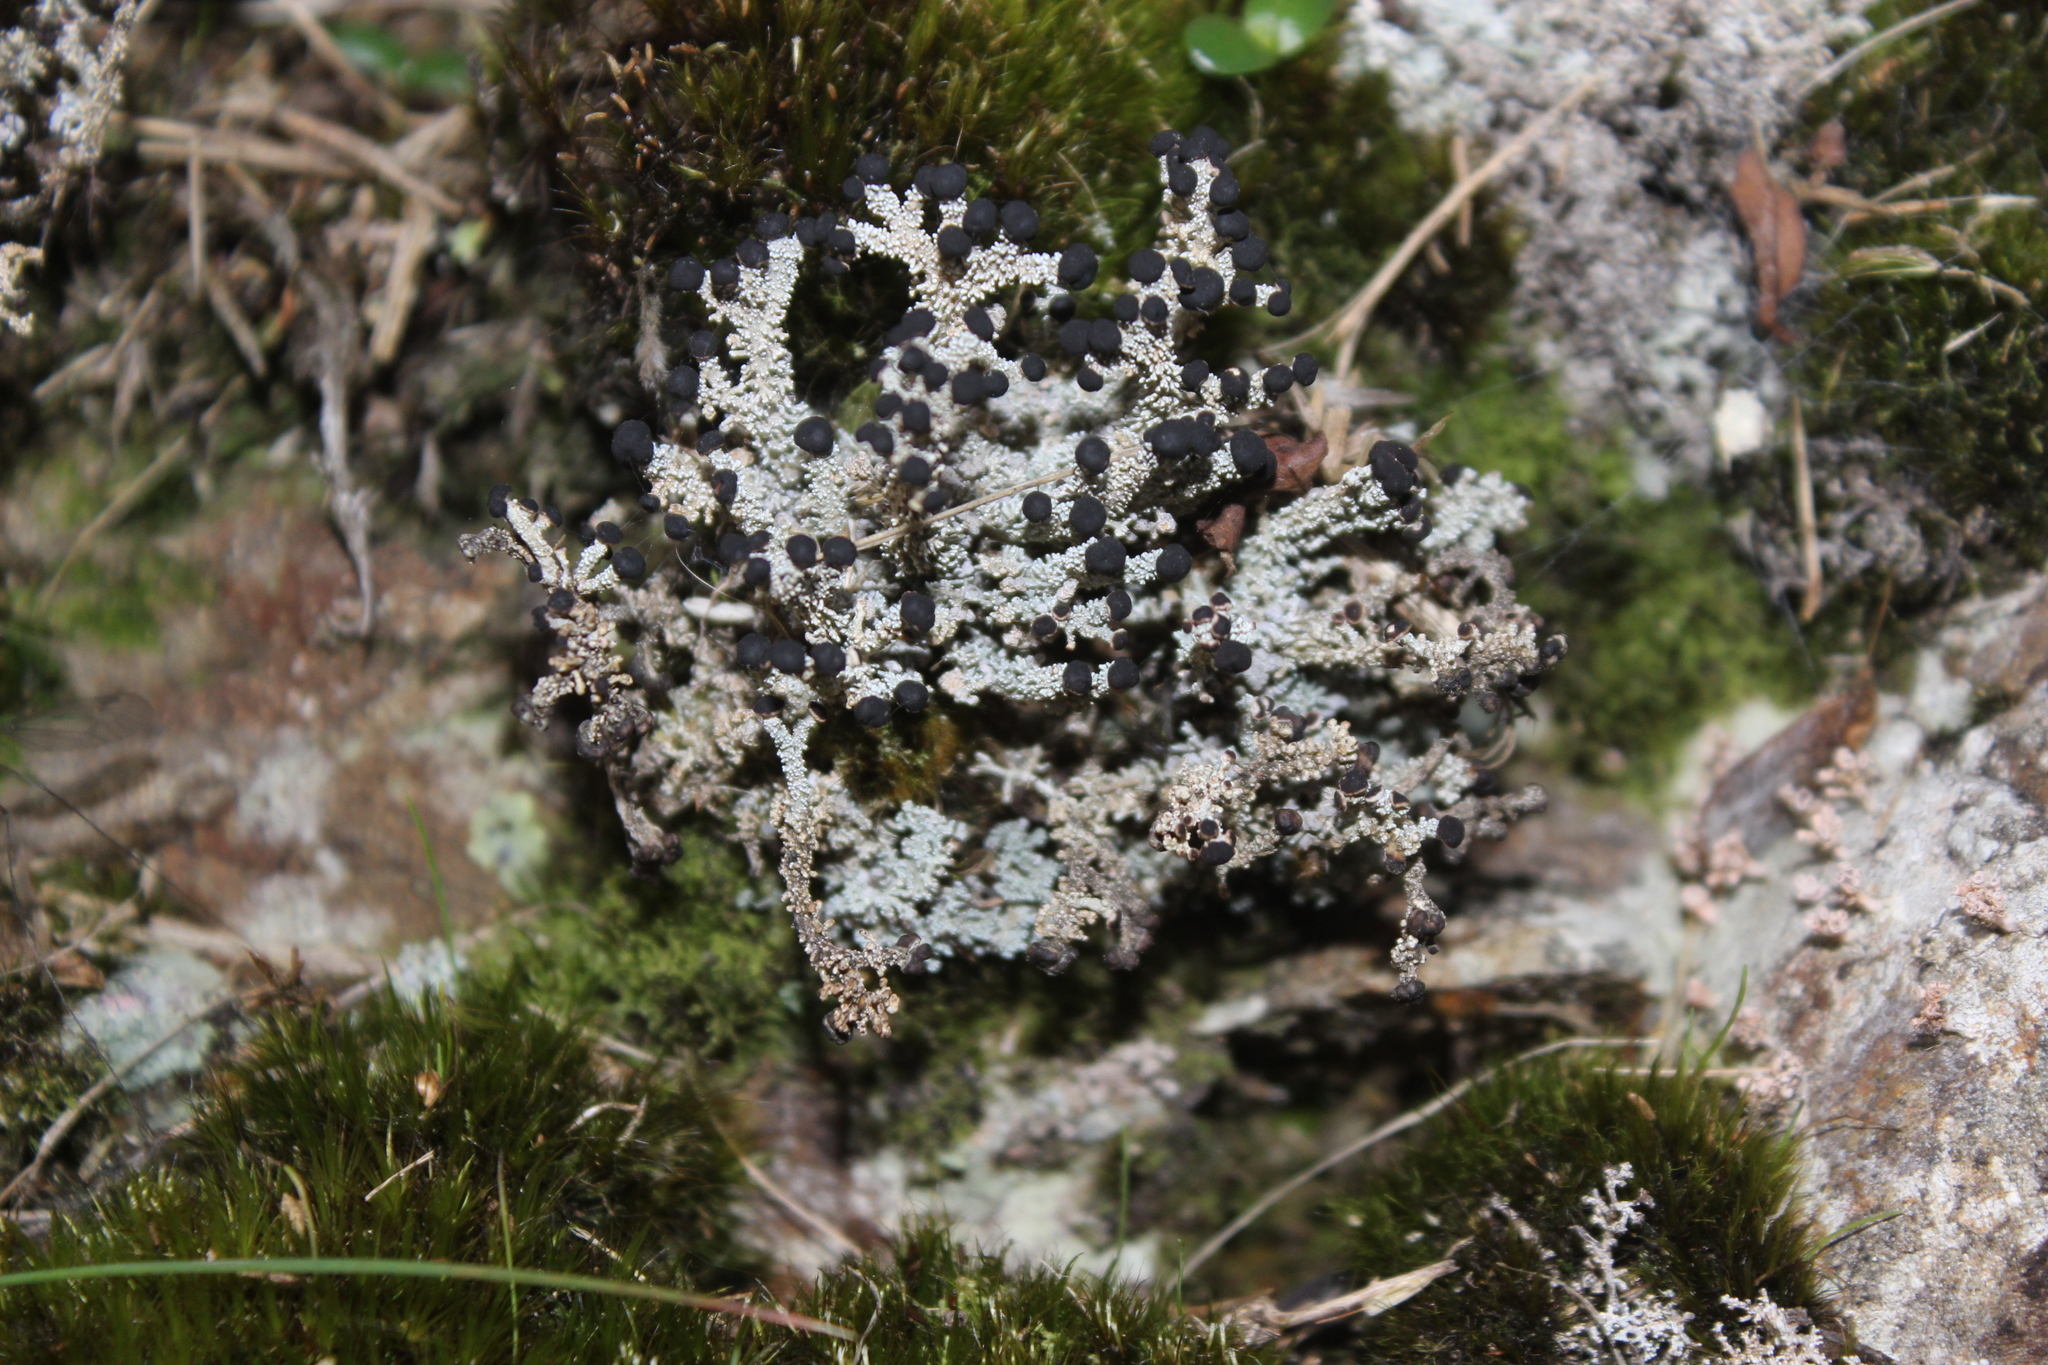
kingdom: Fungi
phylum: Ascomycota
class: Lecanoromycetes
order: Lecanorales
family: Stereocaulaceae
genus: Stereocaulon
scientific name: Stereocaulon ramulosum
